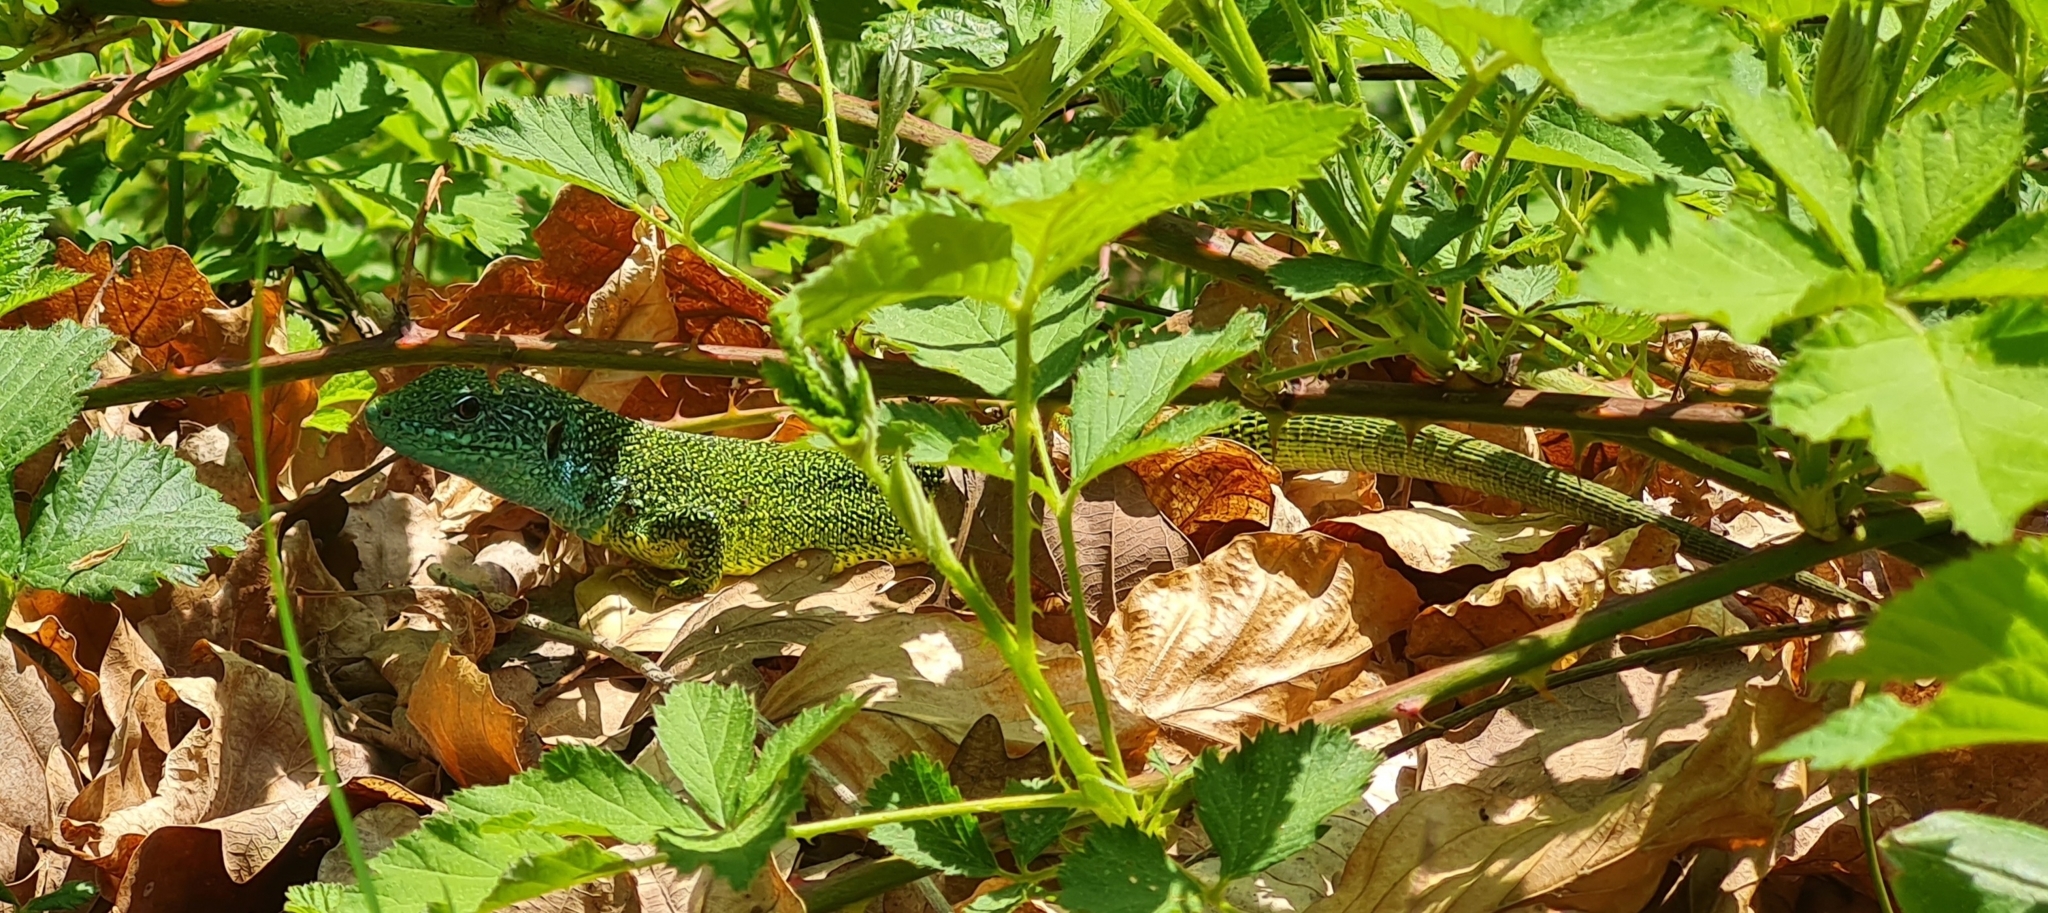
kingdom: Animalia
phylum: Chordata
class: Squamata
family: Lacertidae
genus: Lacerta
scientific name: Lacerta viridis
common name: European green lizard
